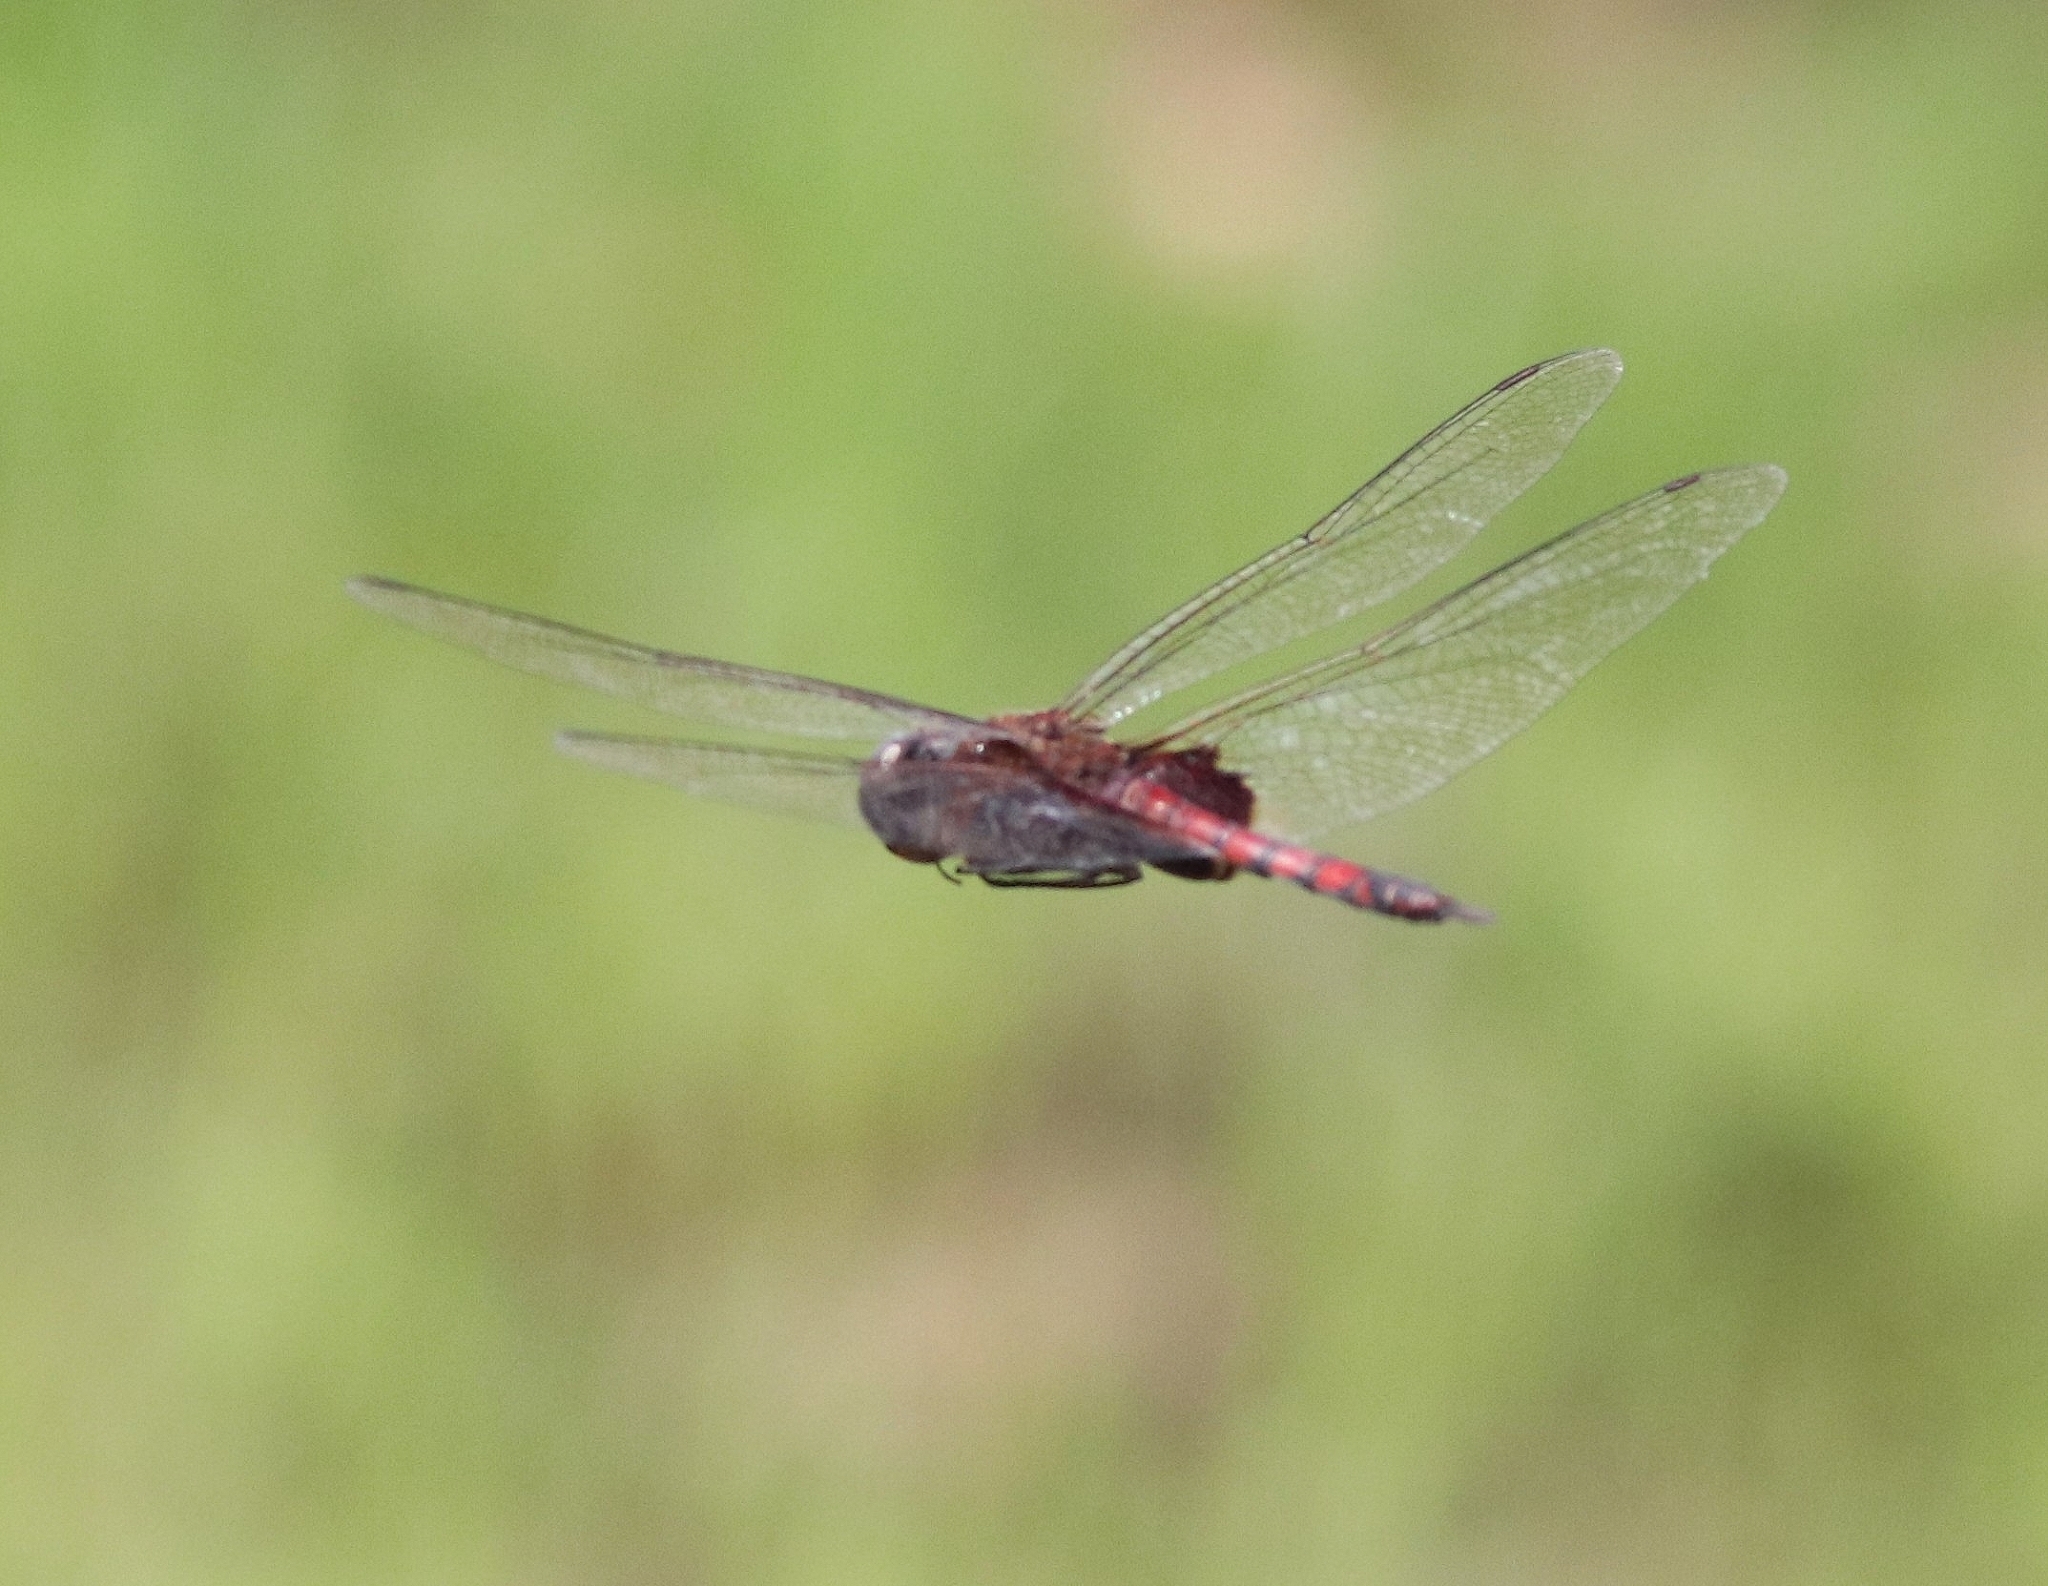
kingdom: Animalia
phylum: Arthropoda
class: Insecta
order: Odonata
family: Libellulidae
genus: Tramea
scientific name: Tramea limbata
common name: Ferruginous glider
